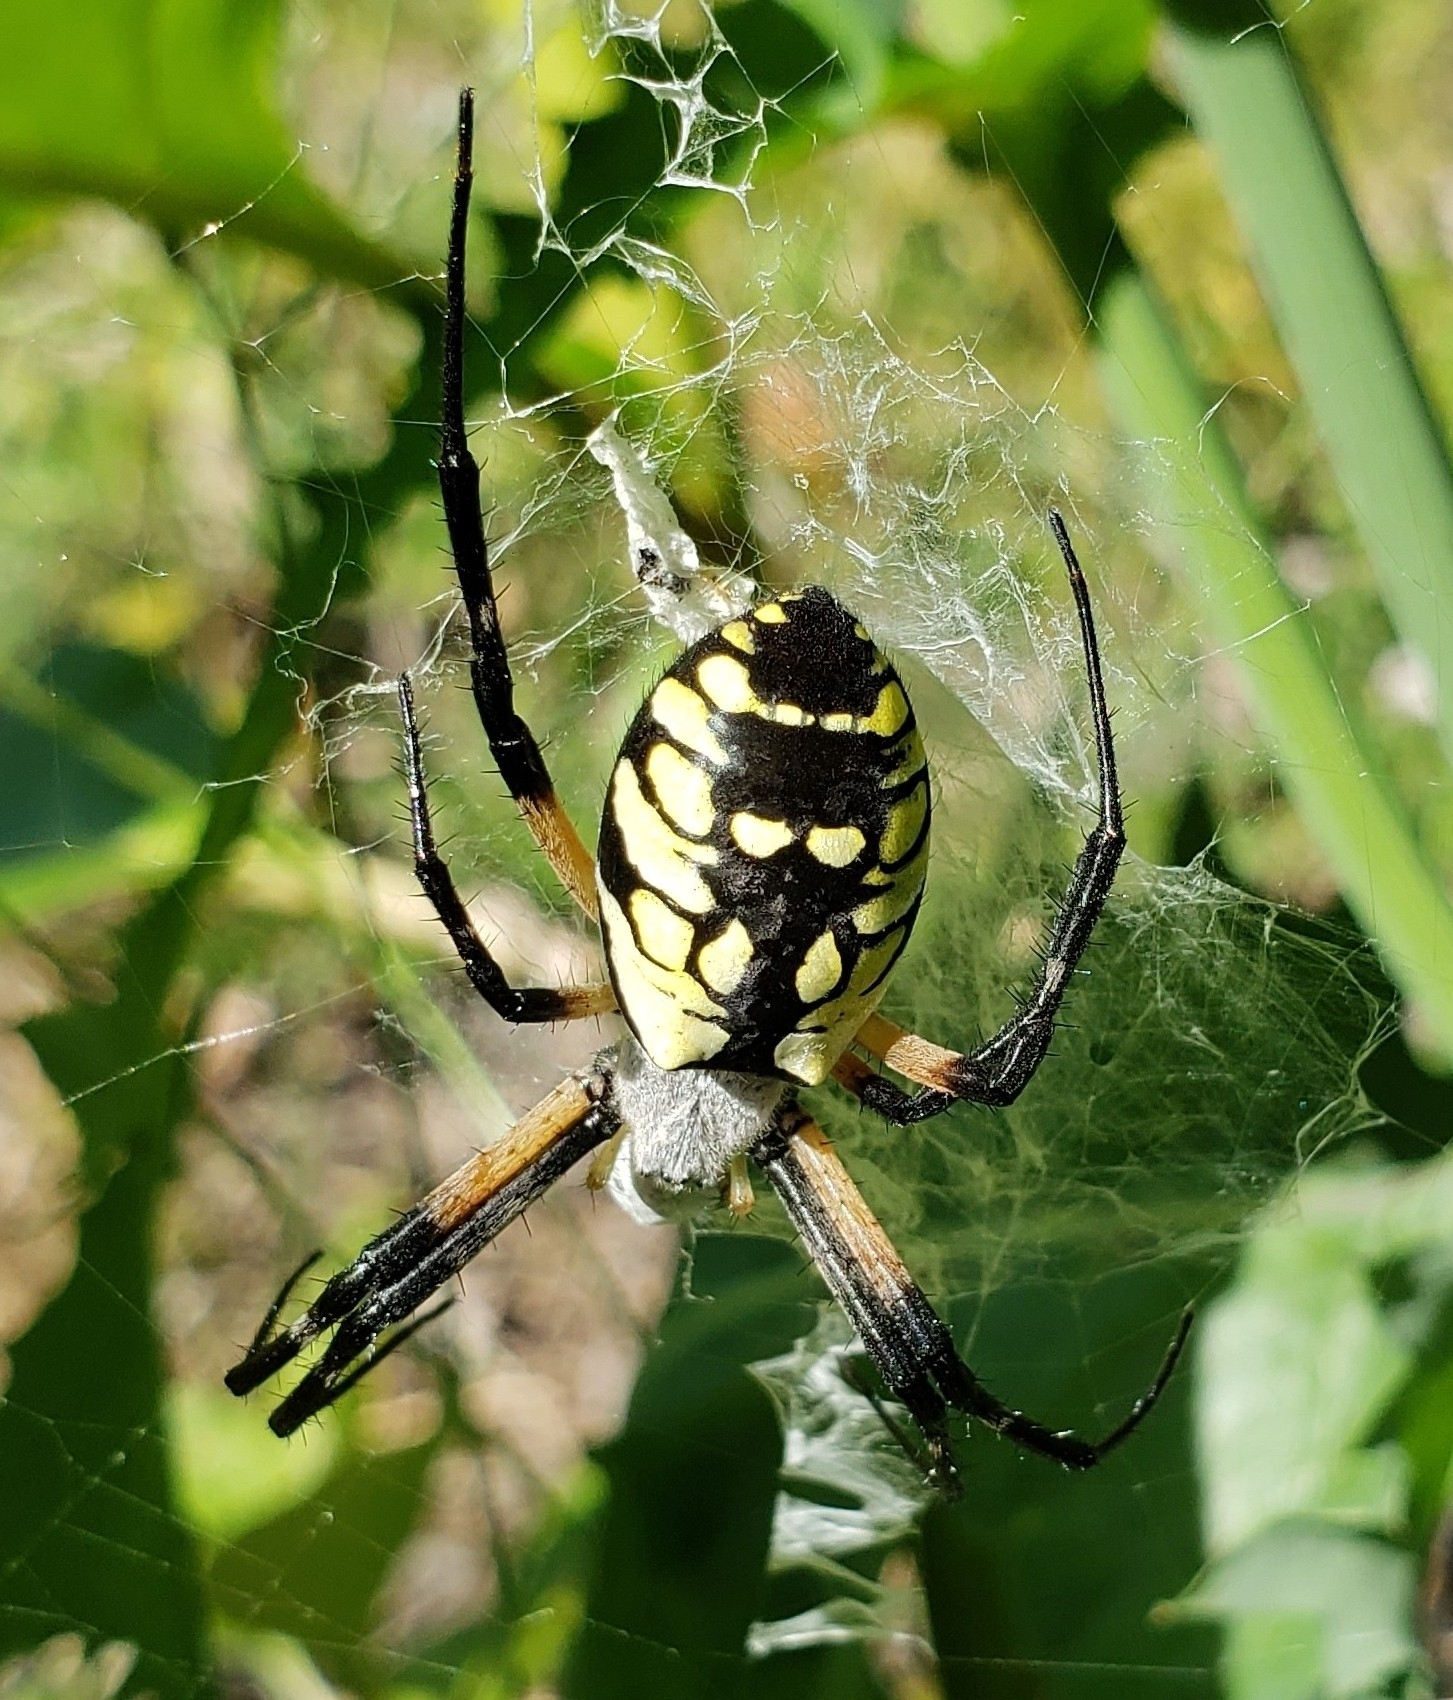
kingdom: Animalia
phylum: Arthropoda
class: Arachnida
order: Araneae
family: Araneidae
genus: Argiope
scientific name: Argiope aurantia
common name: Orb weavers
